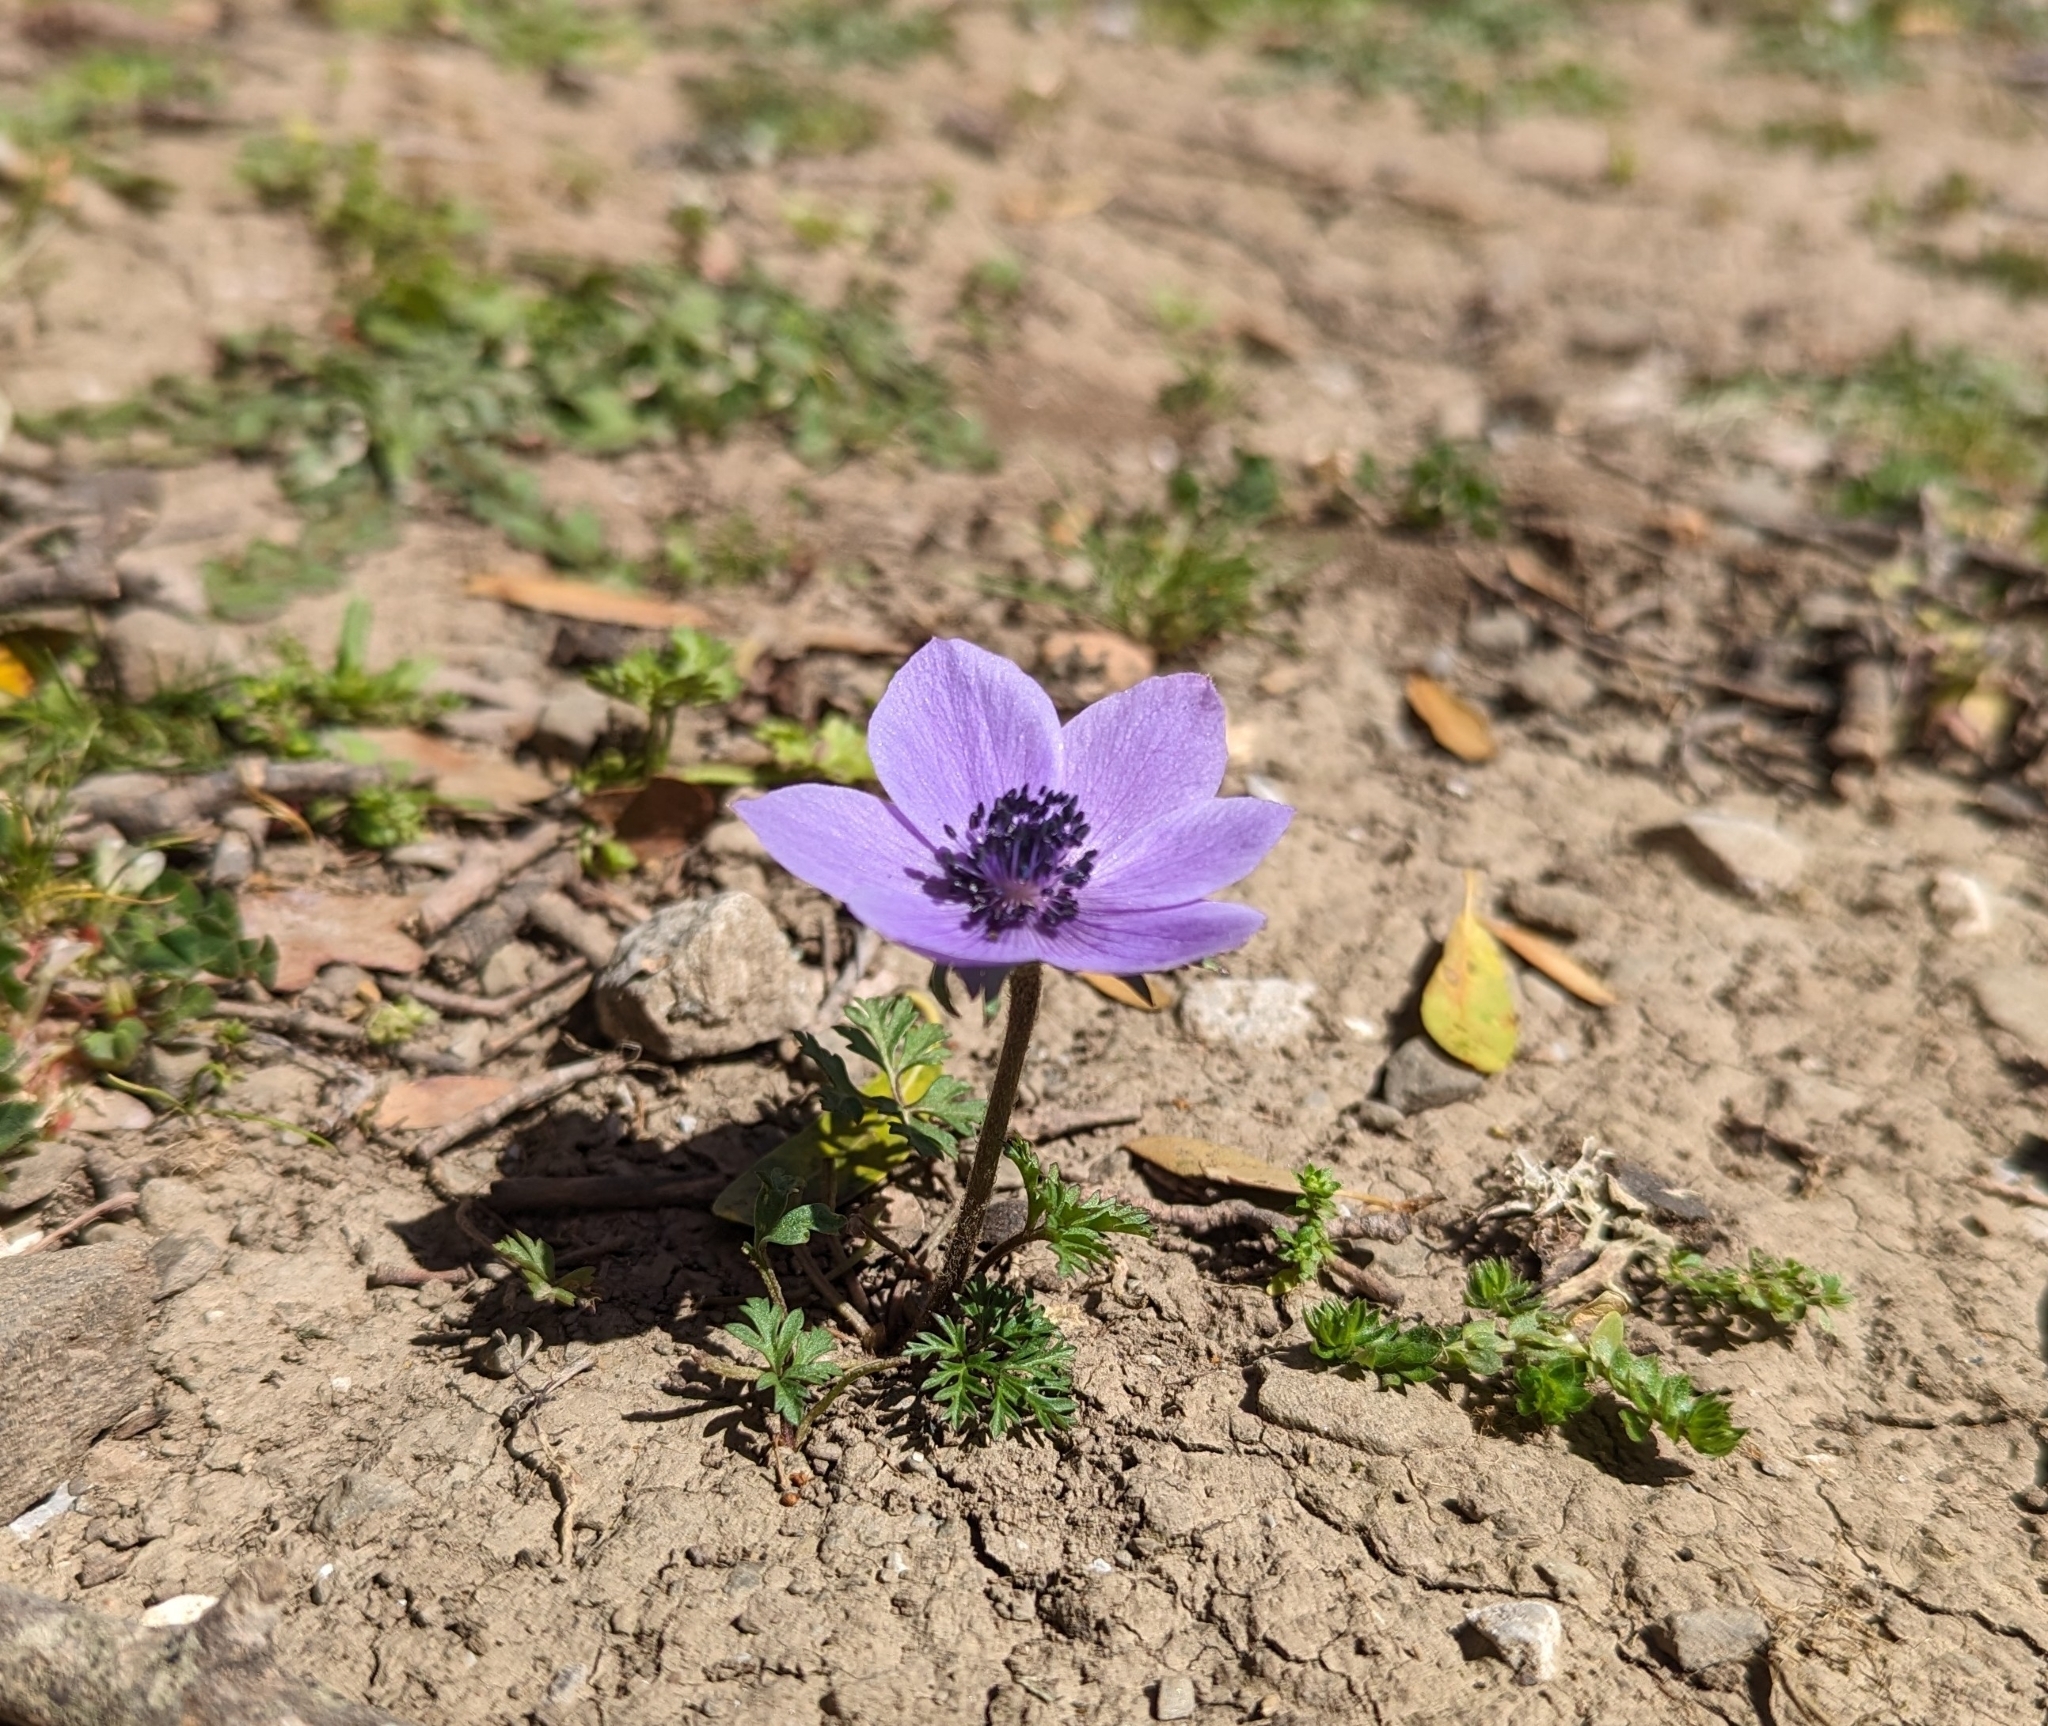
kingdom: Plantae
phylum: Tracheophyta
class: Magnoliopsida
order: Ranunculales
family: Ranunculaceae
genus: Anemone
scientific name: Anemone coronaria
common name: Poppy anemone
